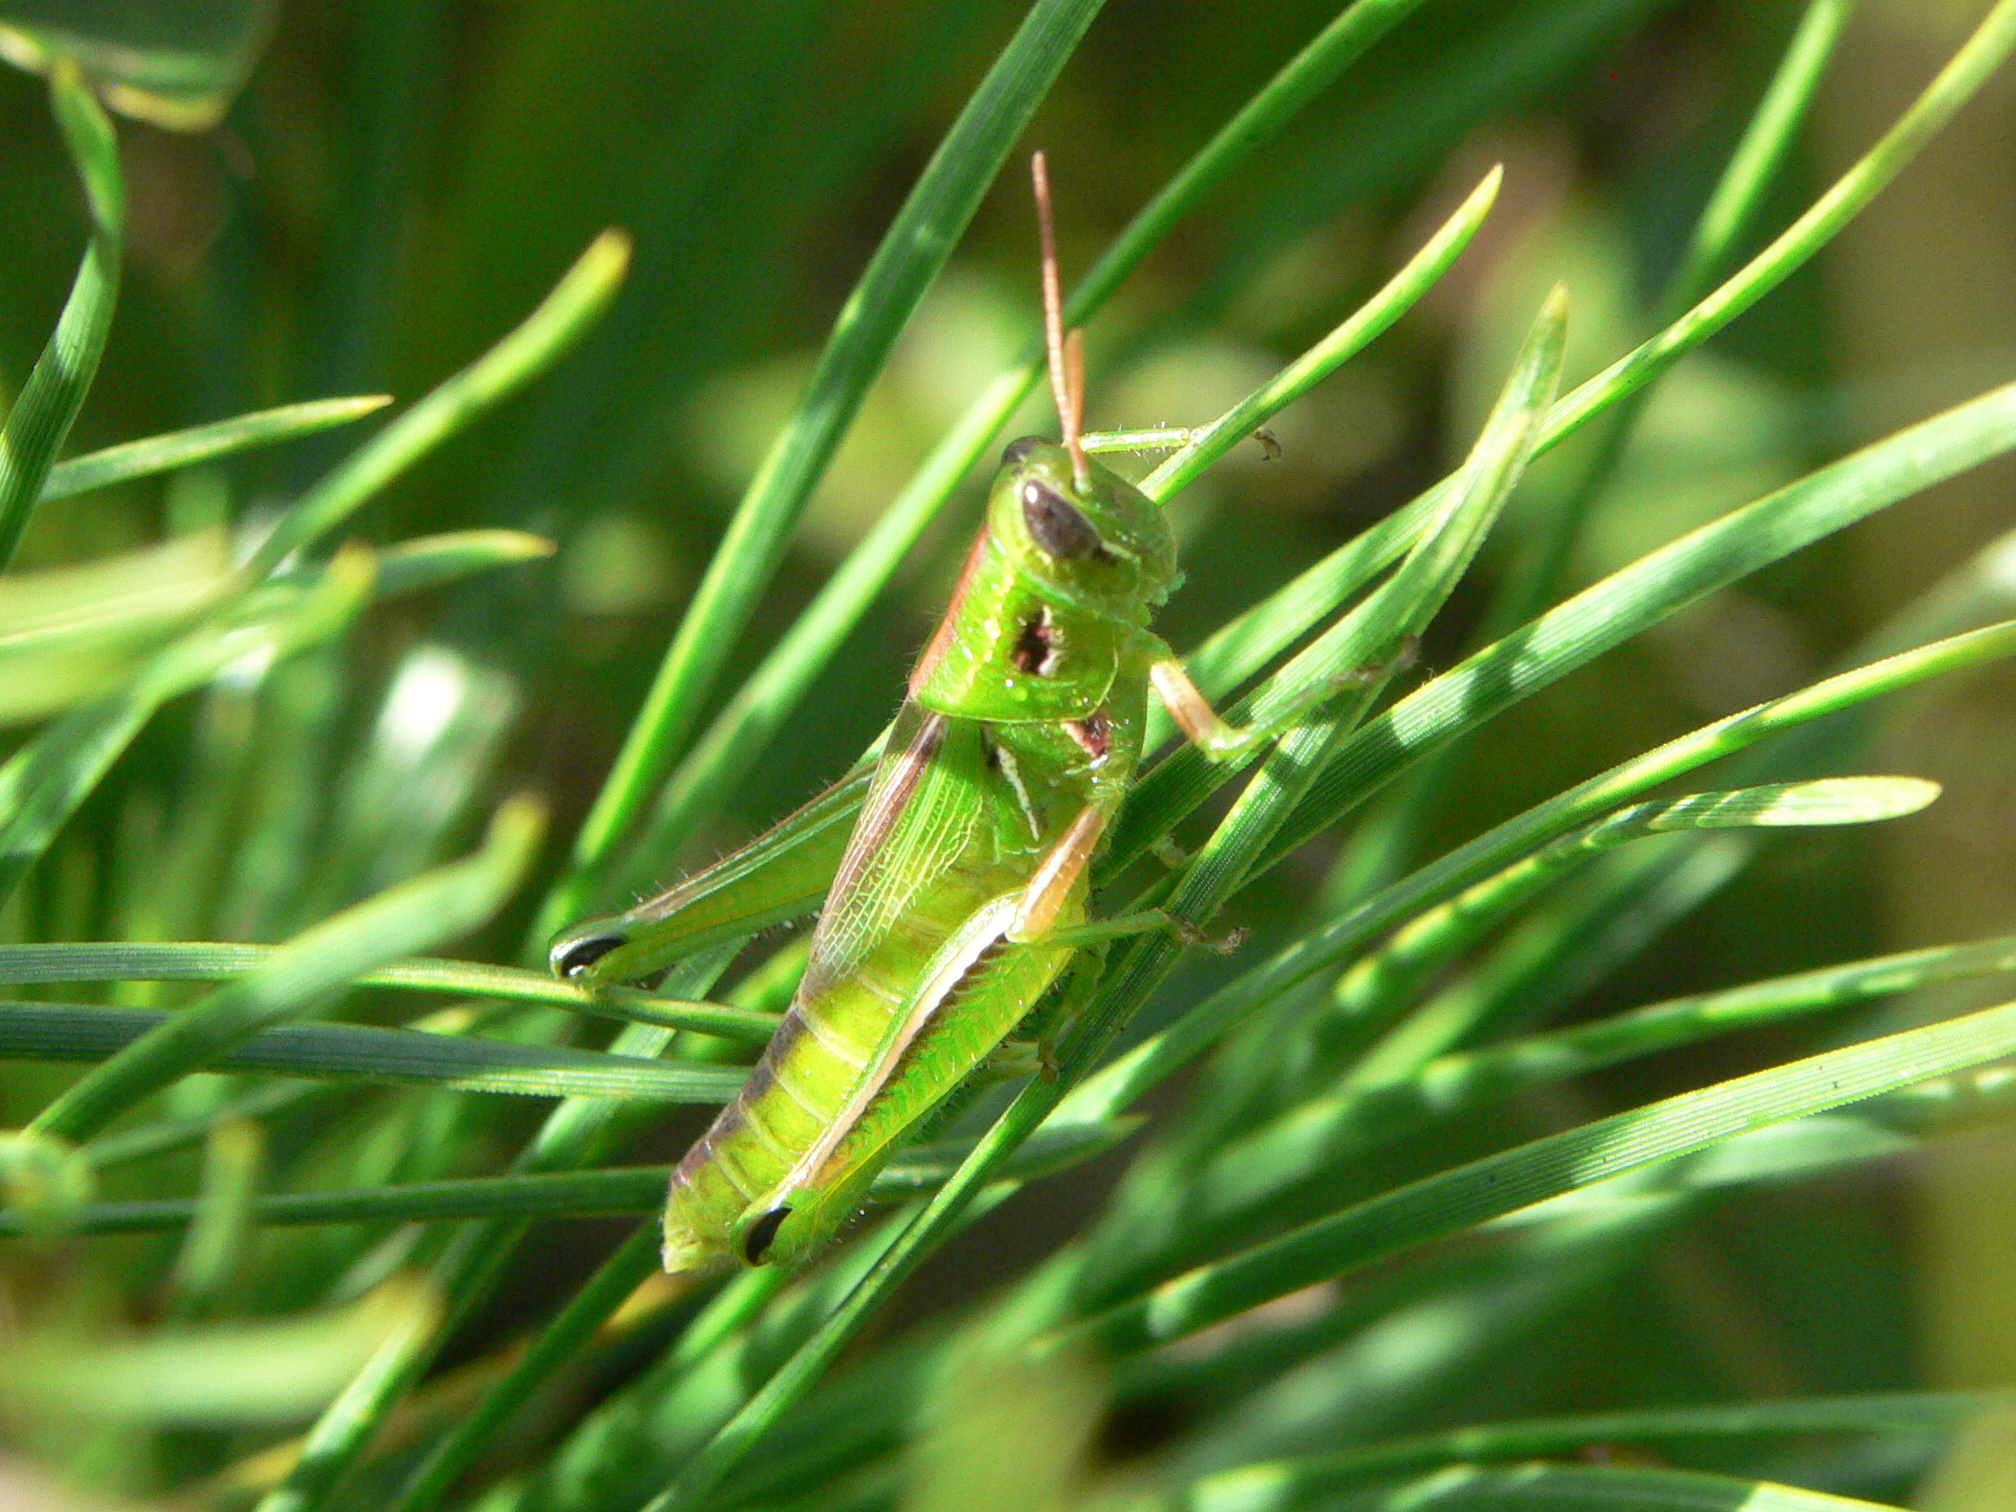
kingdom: Animalia
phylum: Arthropoda
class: Insecta
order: Orthoptera
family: Acrididae
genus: Hesperotettix
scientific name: Hesperotettix viridis
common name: Meadow purple-striped grasshopper
